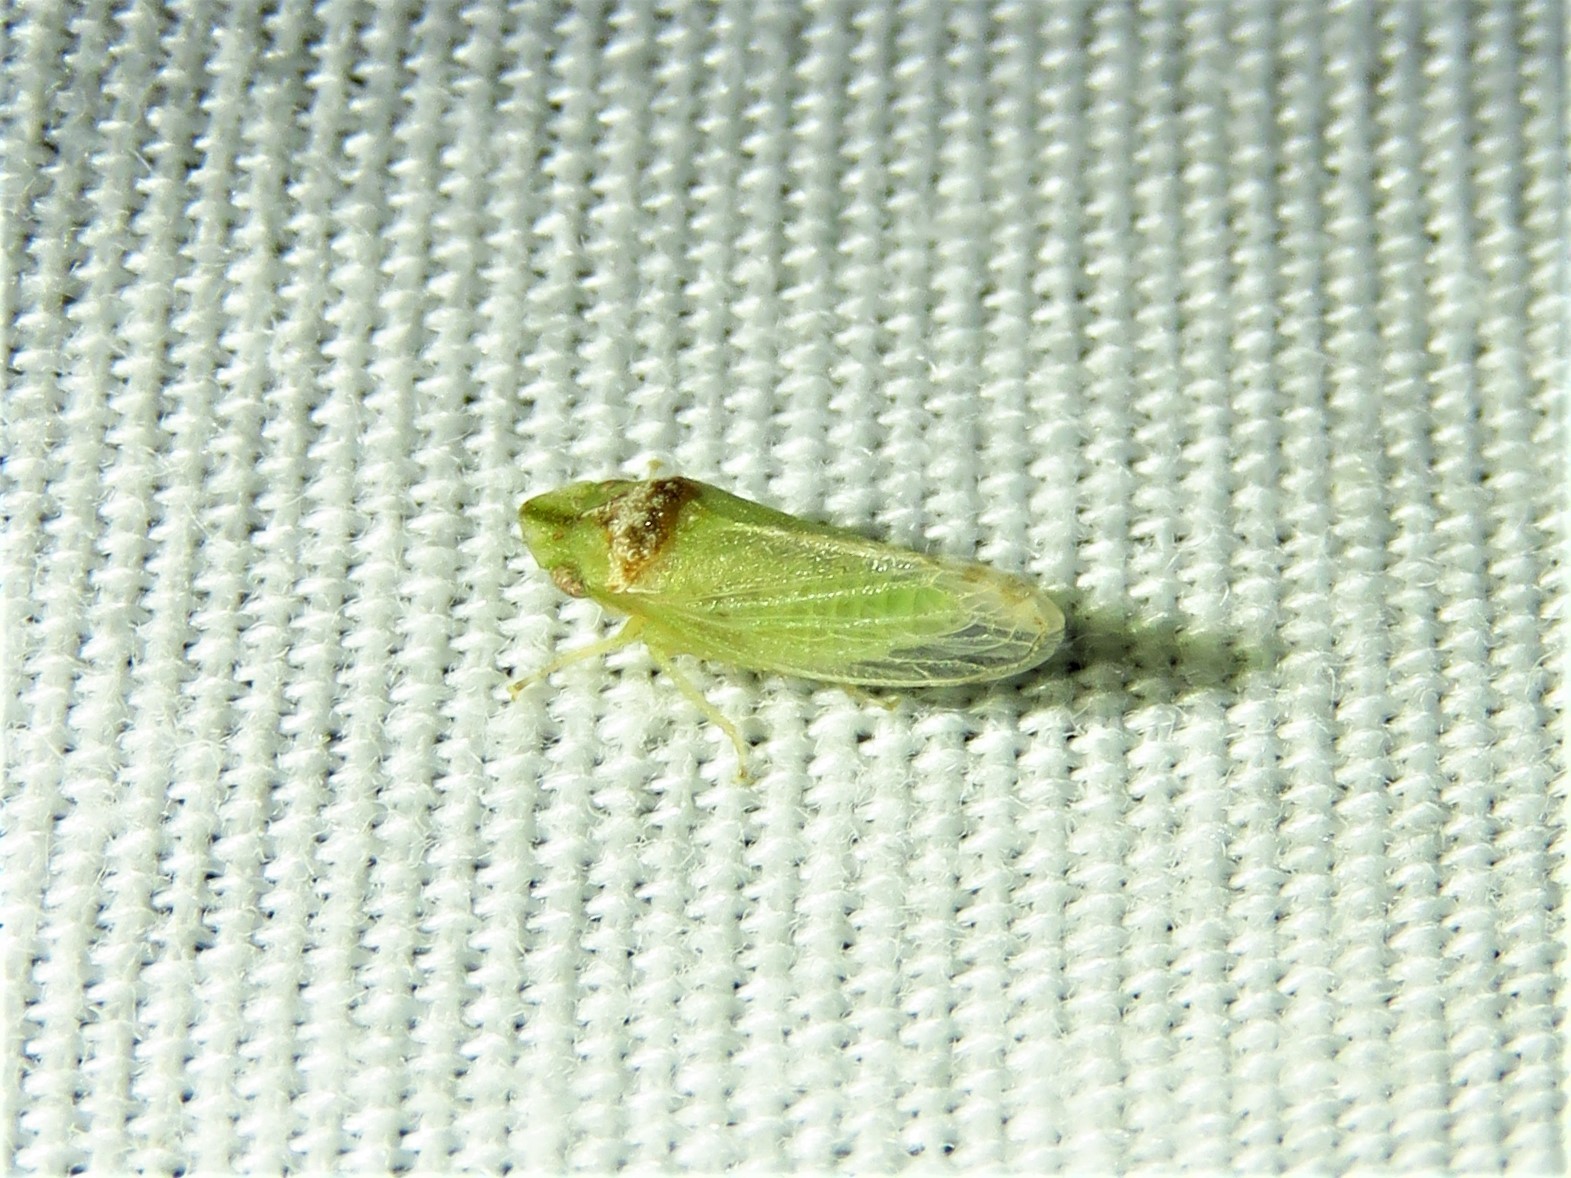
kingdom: Animalia
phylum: Arthropoda
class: Insecta
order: Hemiptera
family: Cicadellidae
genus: Xerophloea
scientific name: Xerophloea viridis
